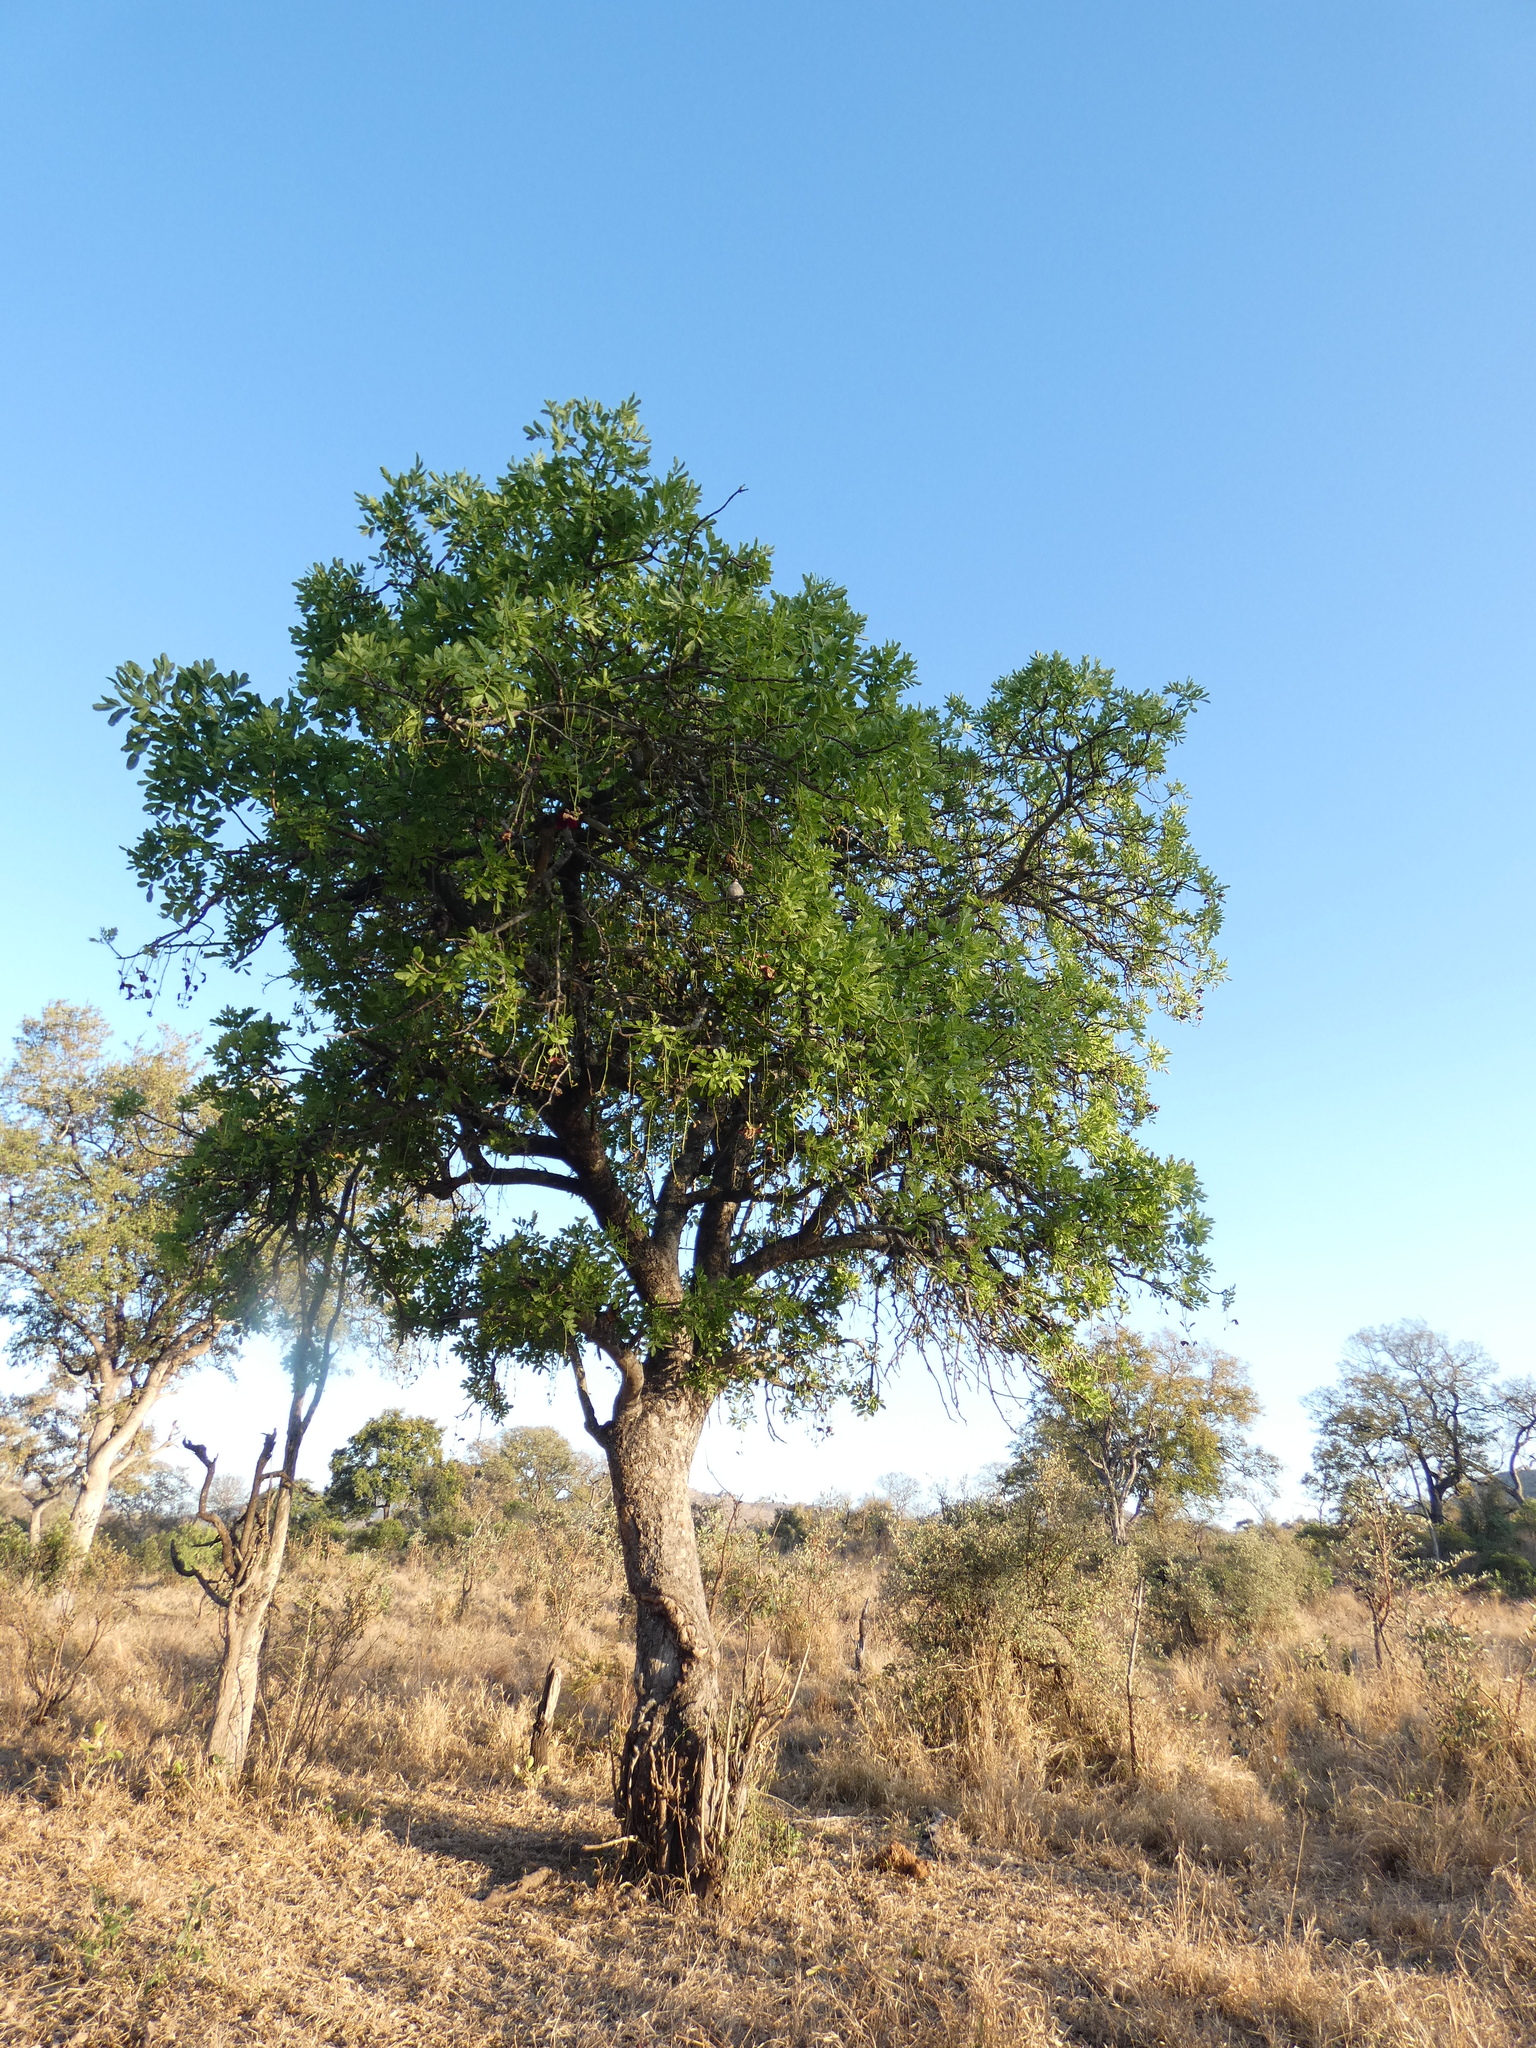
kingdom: Plantae
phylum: Tracheophyta
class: Magnoliopsida
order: Lamiales
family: Bignoniaceae
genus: Kigelia
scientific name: Kigelia africana
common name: Sausage tree
